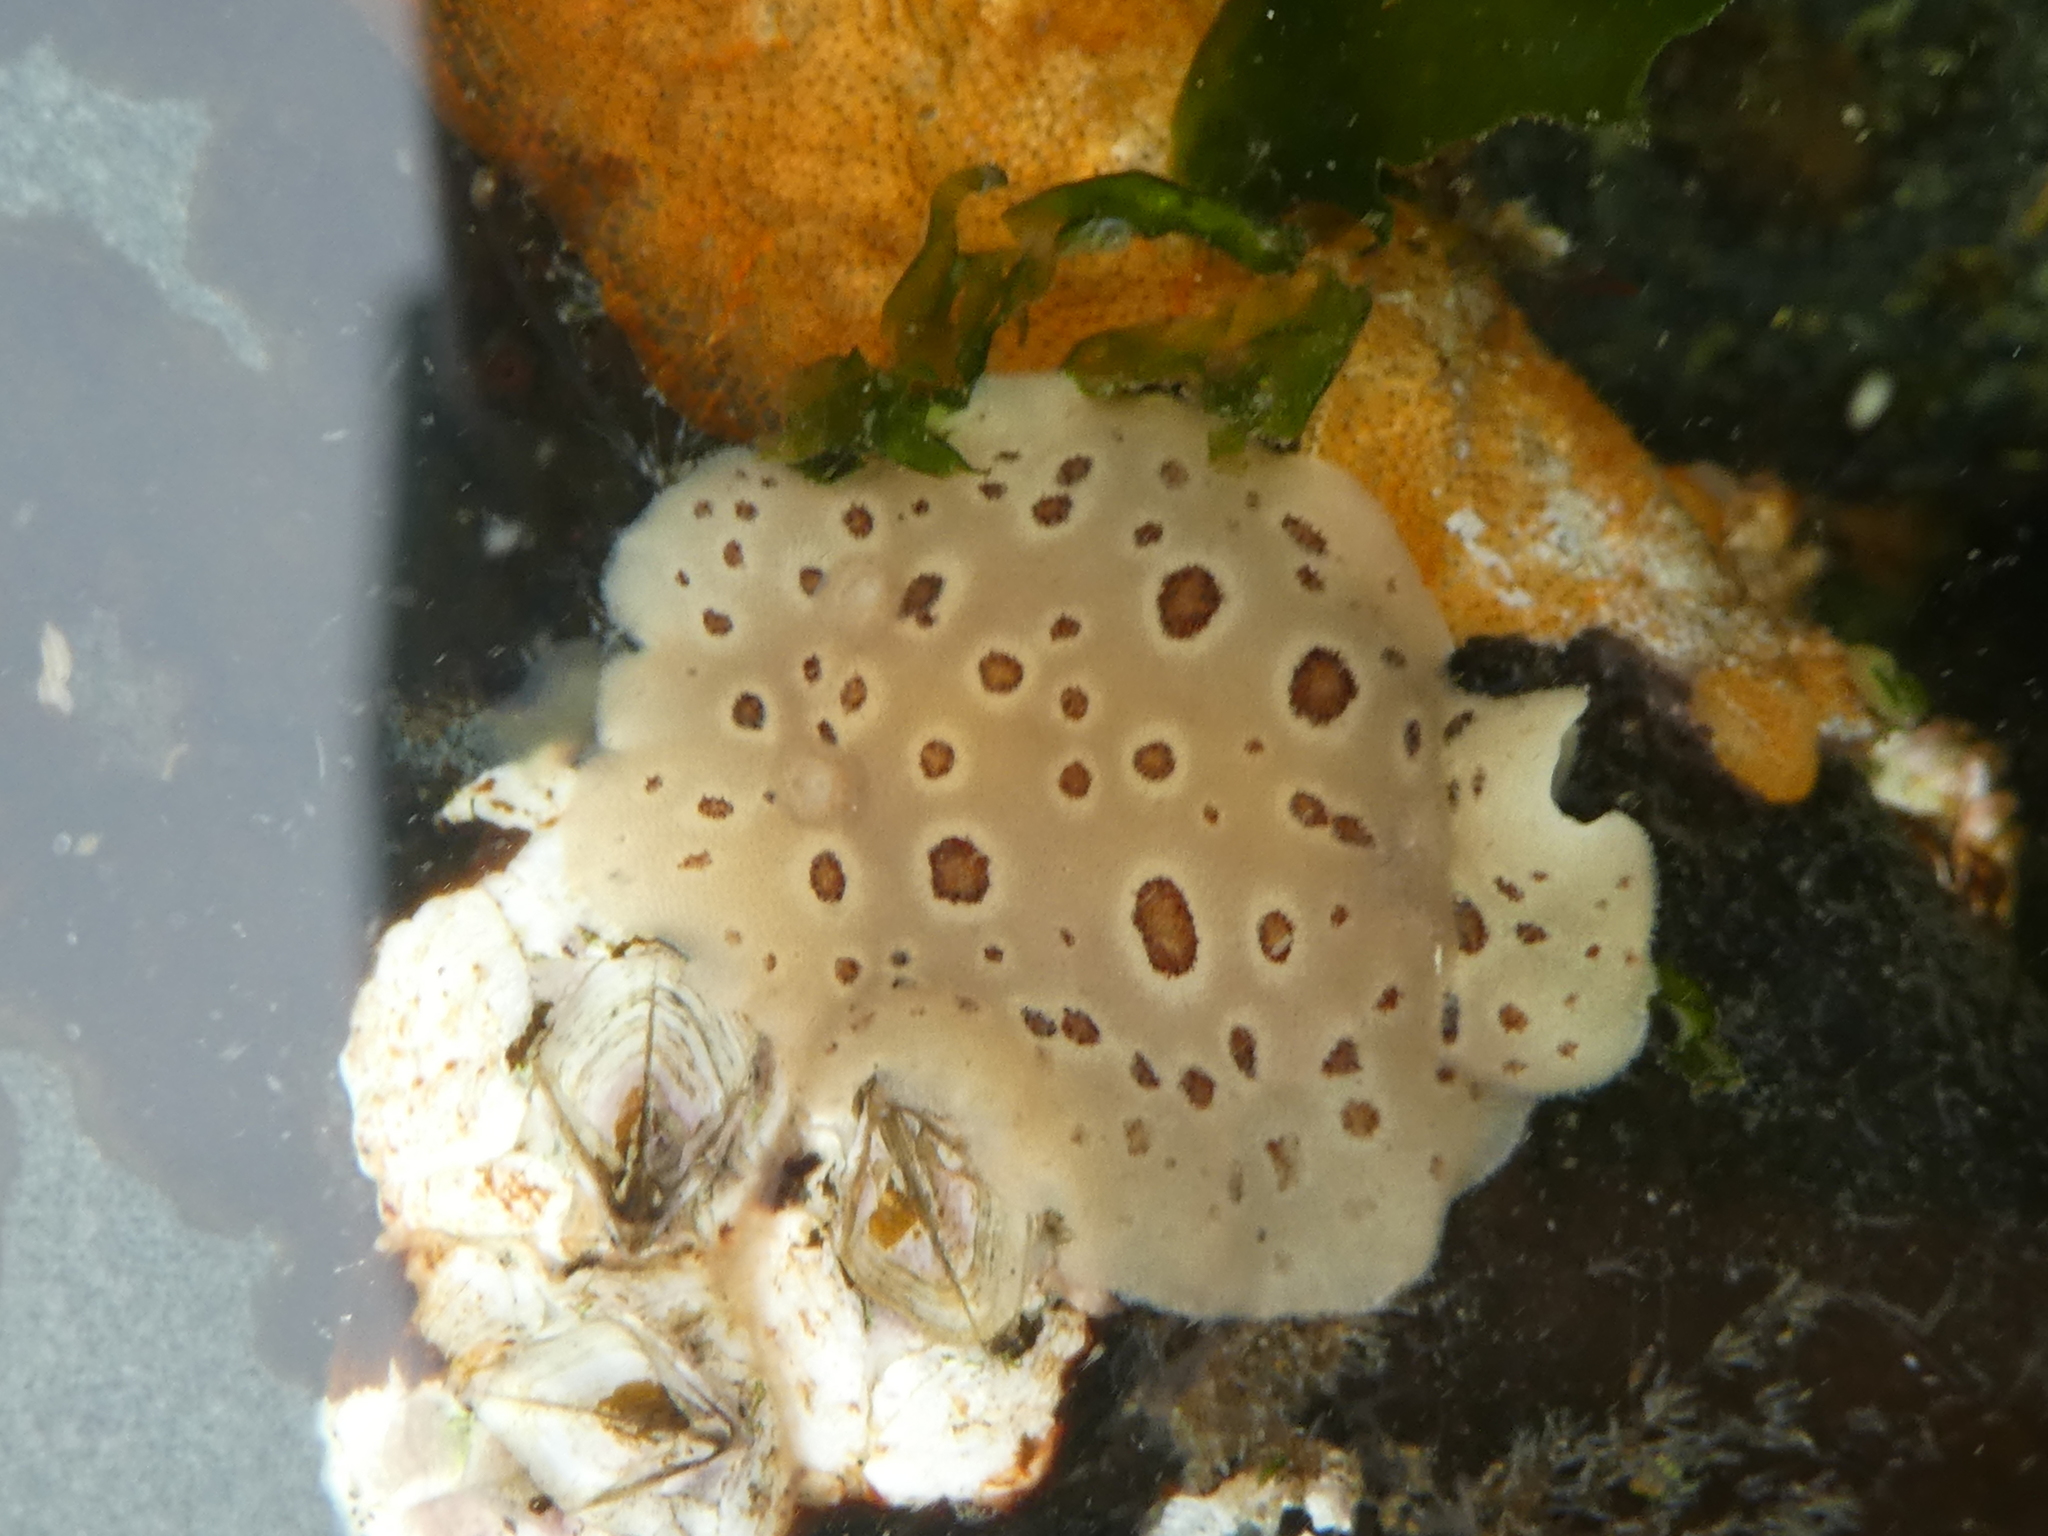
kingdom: Animalia
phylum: Mollusca
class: Gastropoda
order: Nudibranchia
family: Discodorididae
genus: Diaulula
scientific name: Diaulula odonoghuei
